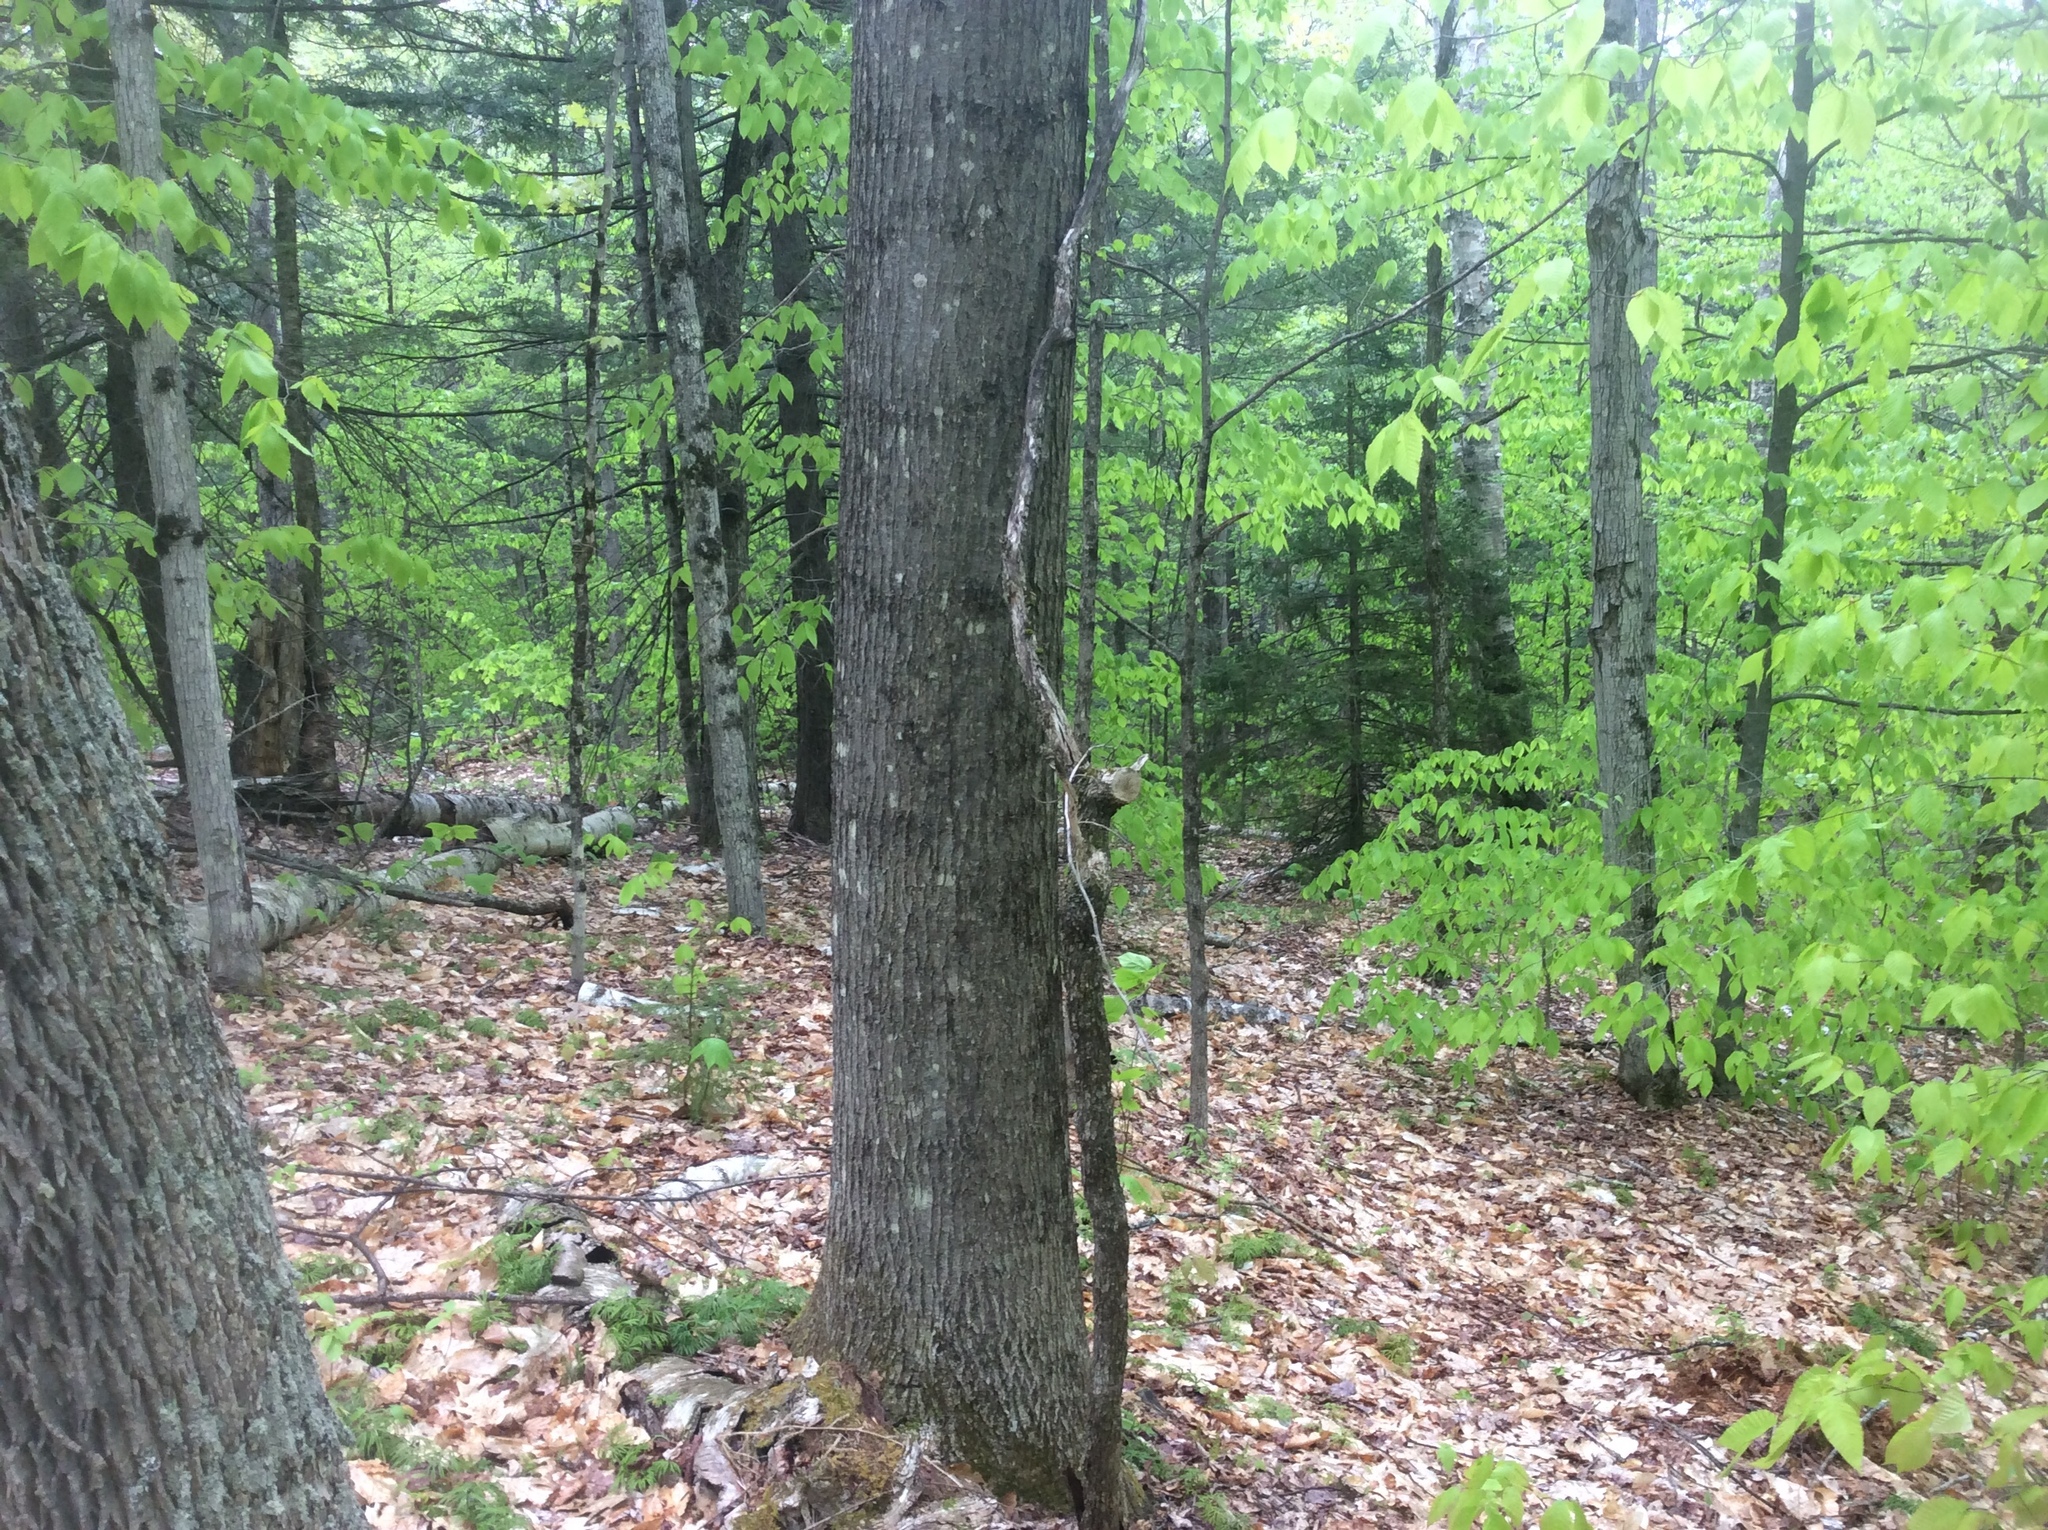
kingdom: Plantae
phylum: Tracheophyta
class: Magnoliopsida
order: Fagales
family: Fagaceae
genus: Quercus
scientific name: Quercus rubra
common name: Red oak
